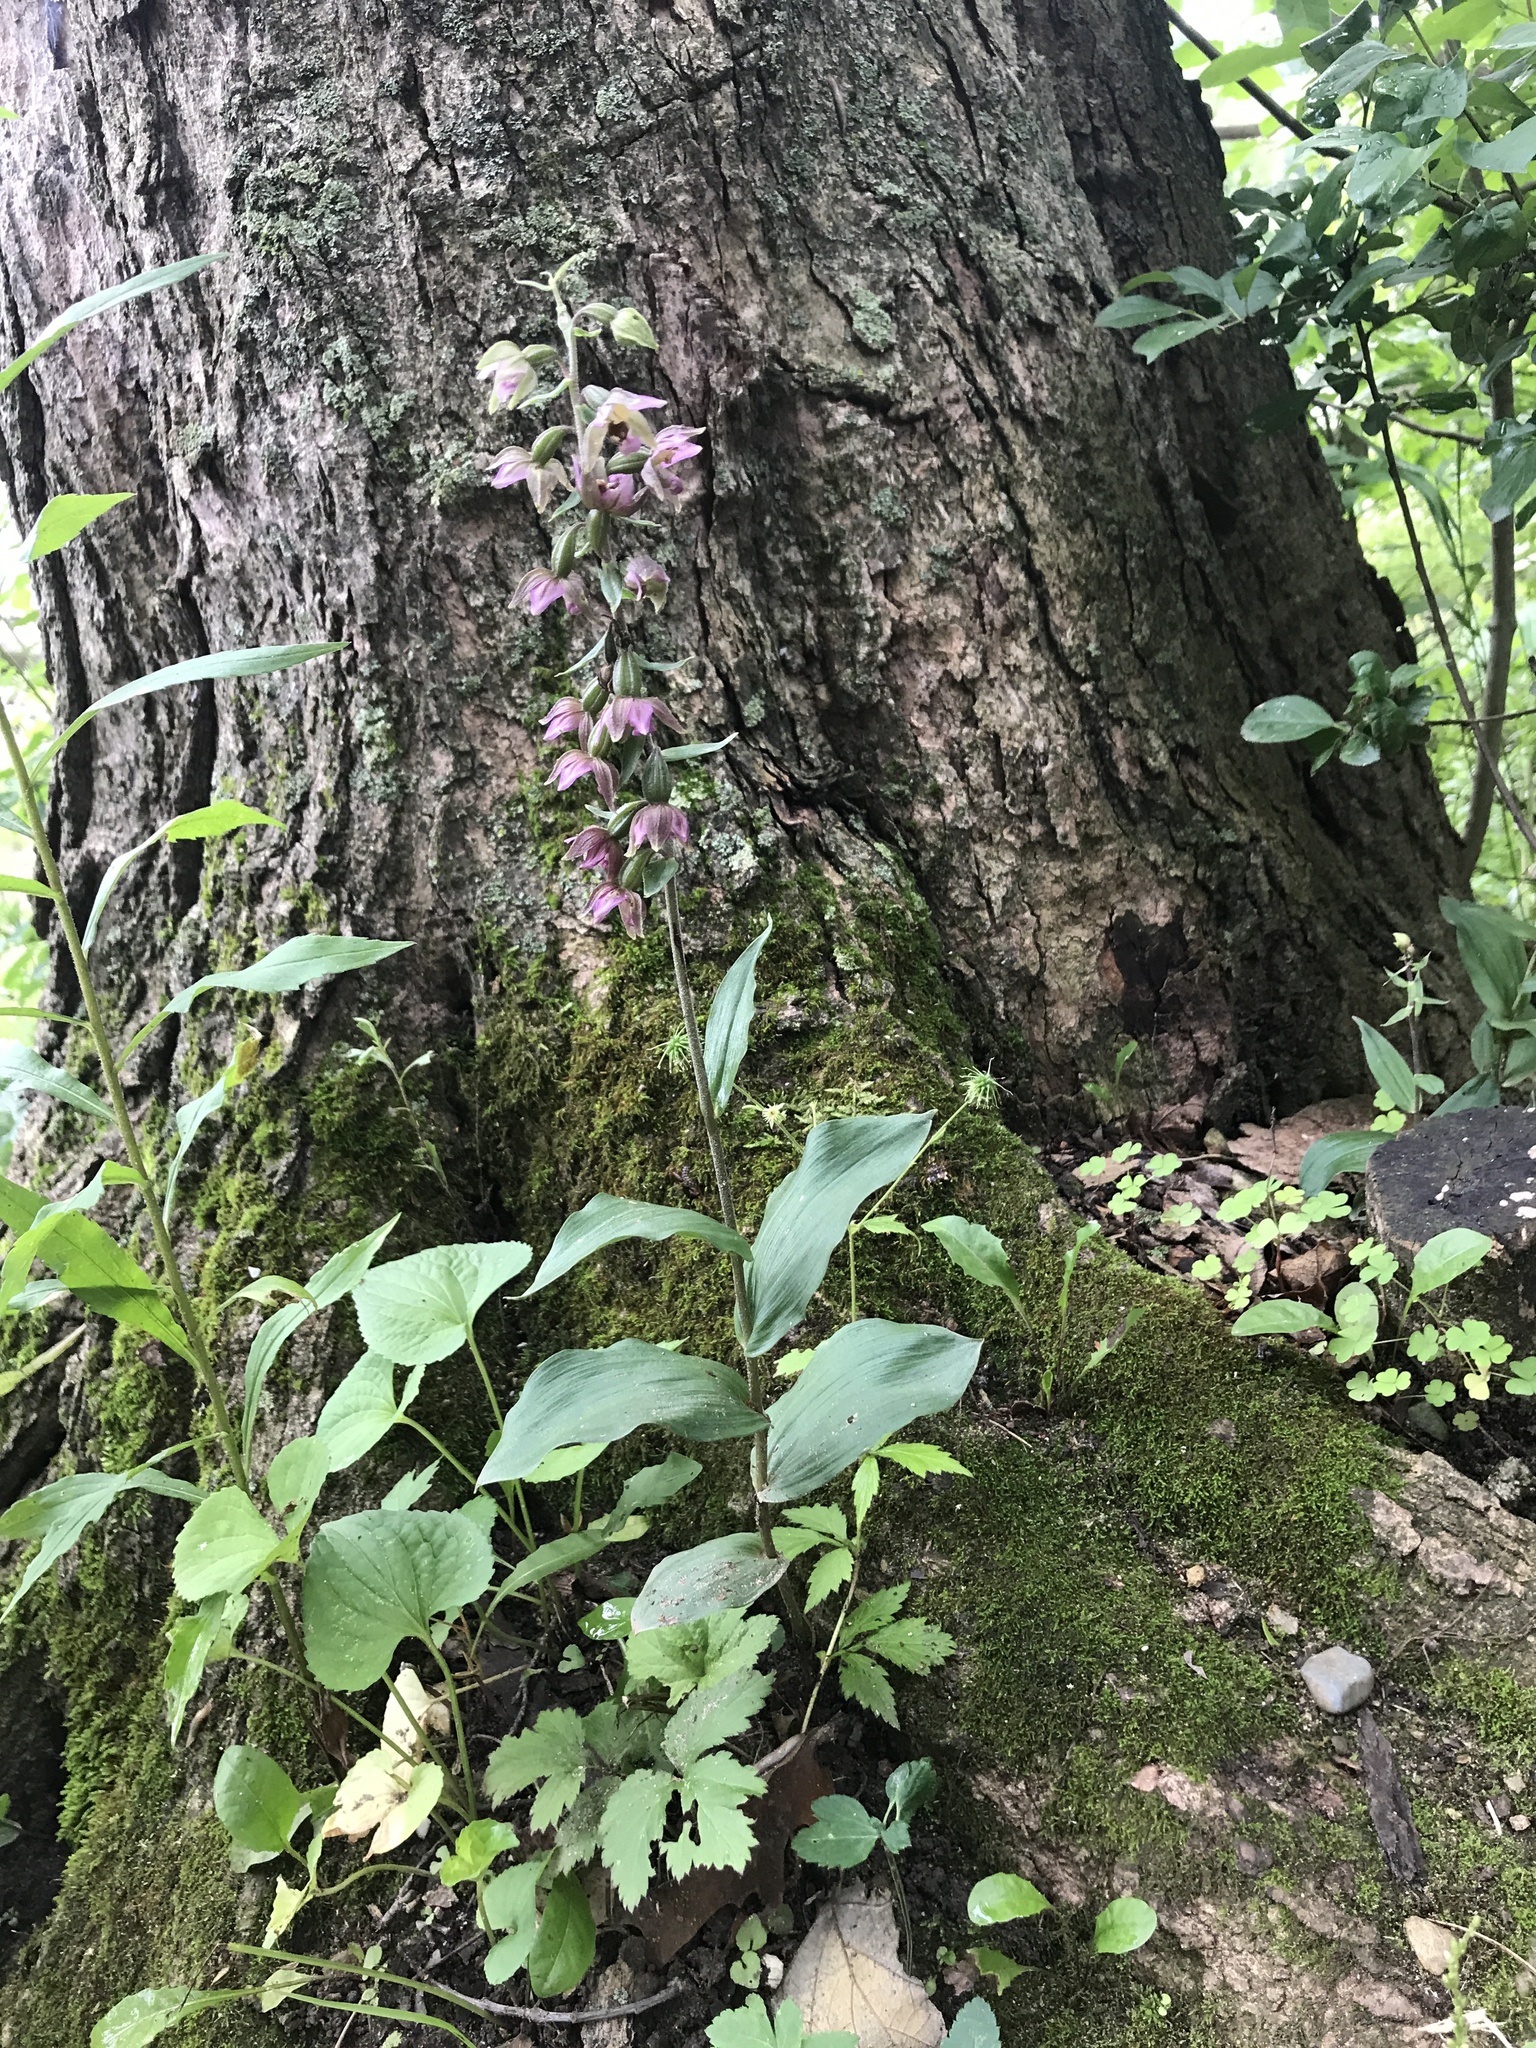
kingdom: Plantae
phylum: Tracheophyta
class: Liliopsida
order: Asparagales
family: Orchidaceae
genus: Epipactis
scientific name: Epipactis helleborine
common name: Broad-leaved helleborine
